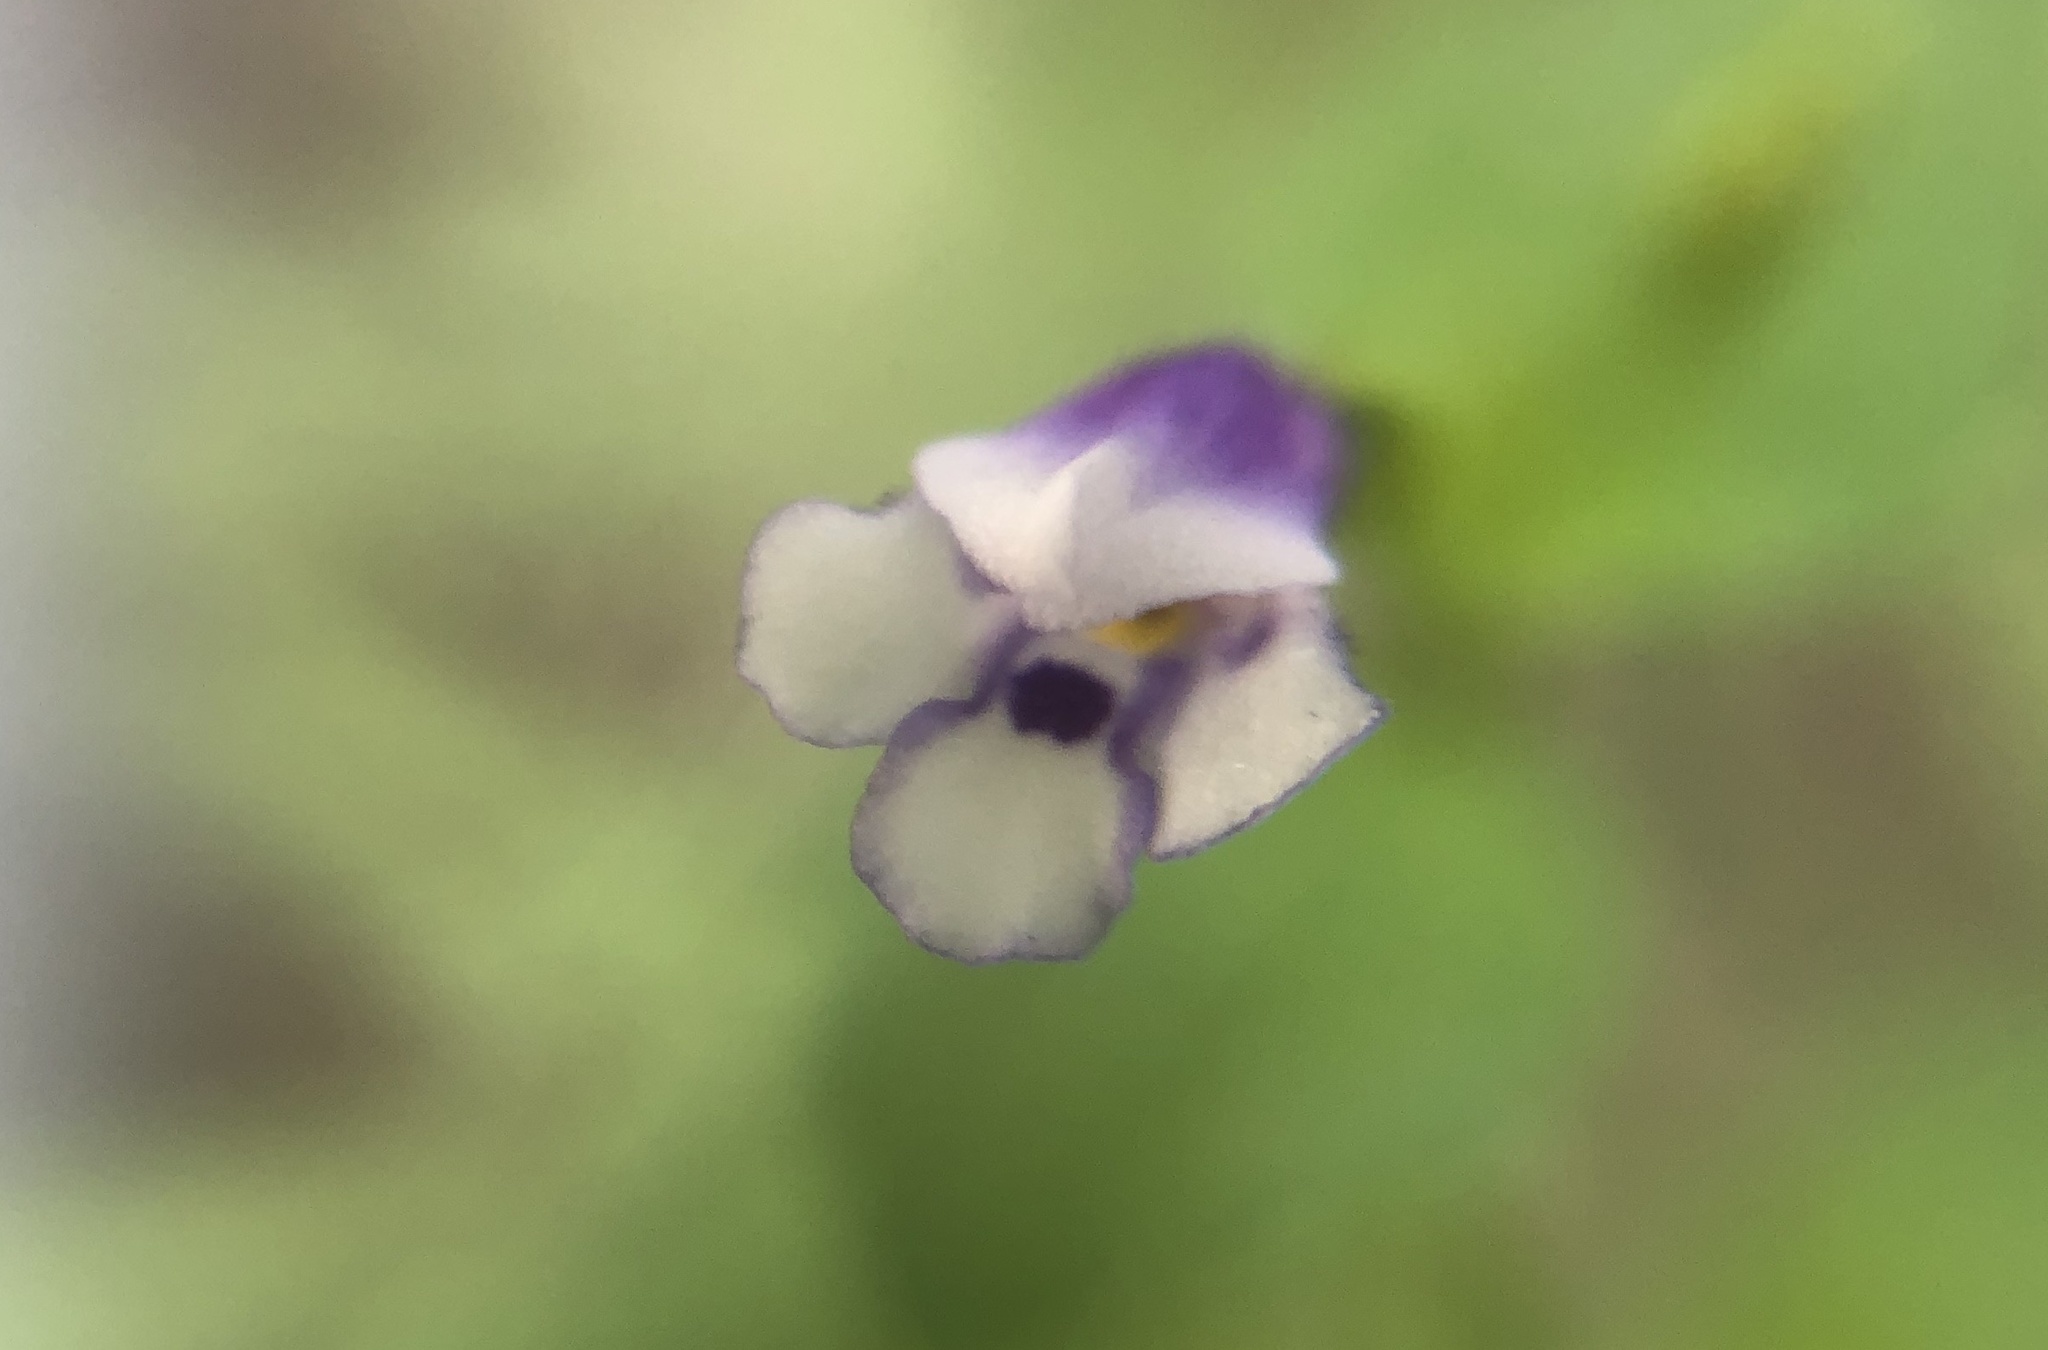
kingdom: Plantae
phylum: Tracheophyta
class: Magnoliopsida
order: Lamiales
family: Linderniaceae
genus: Torenia
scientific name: Torenia crustacea
